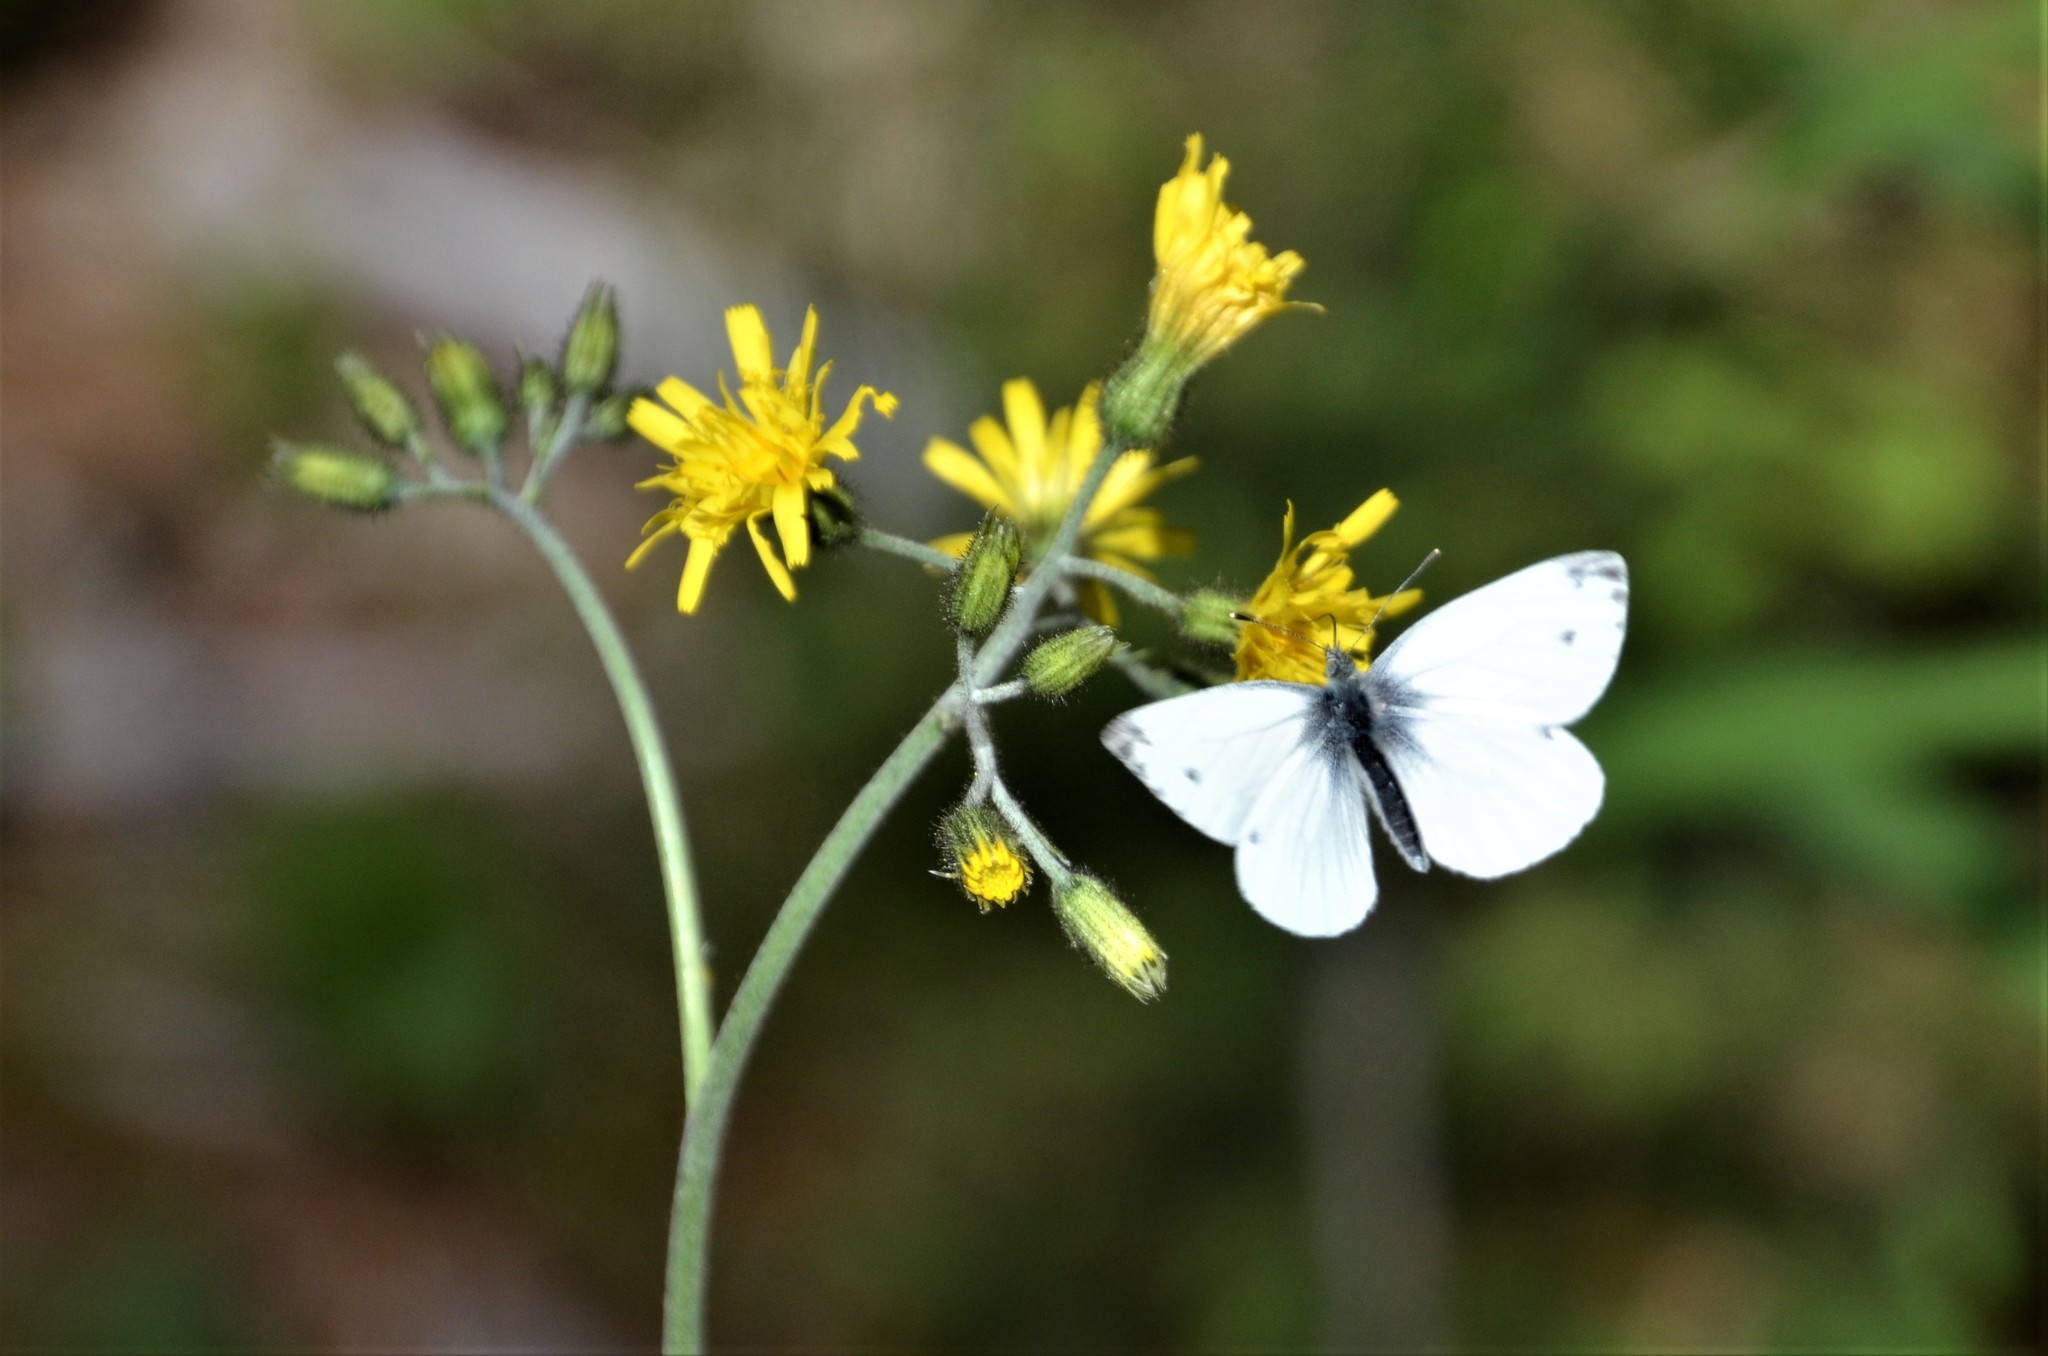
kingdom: Animalia
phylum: Arthropoda
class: Insecta
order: Lepidoptera
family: Pieridae
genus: Pieris
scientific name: Pieris napi
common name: Green-veined white
